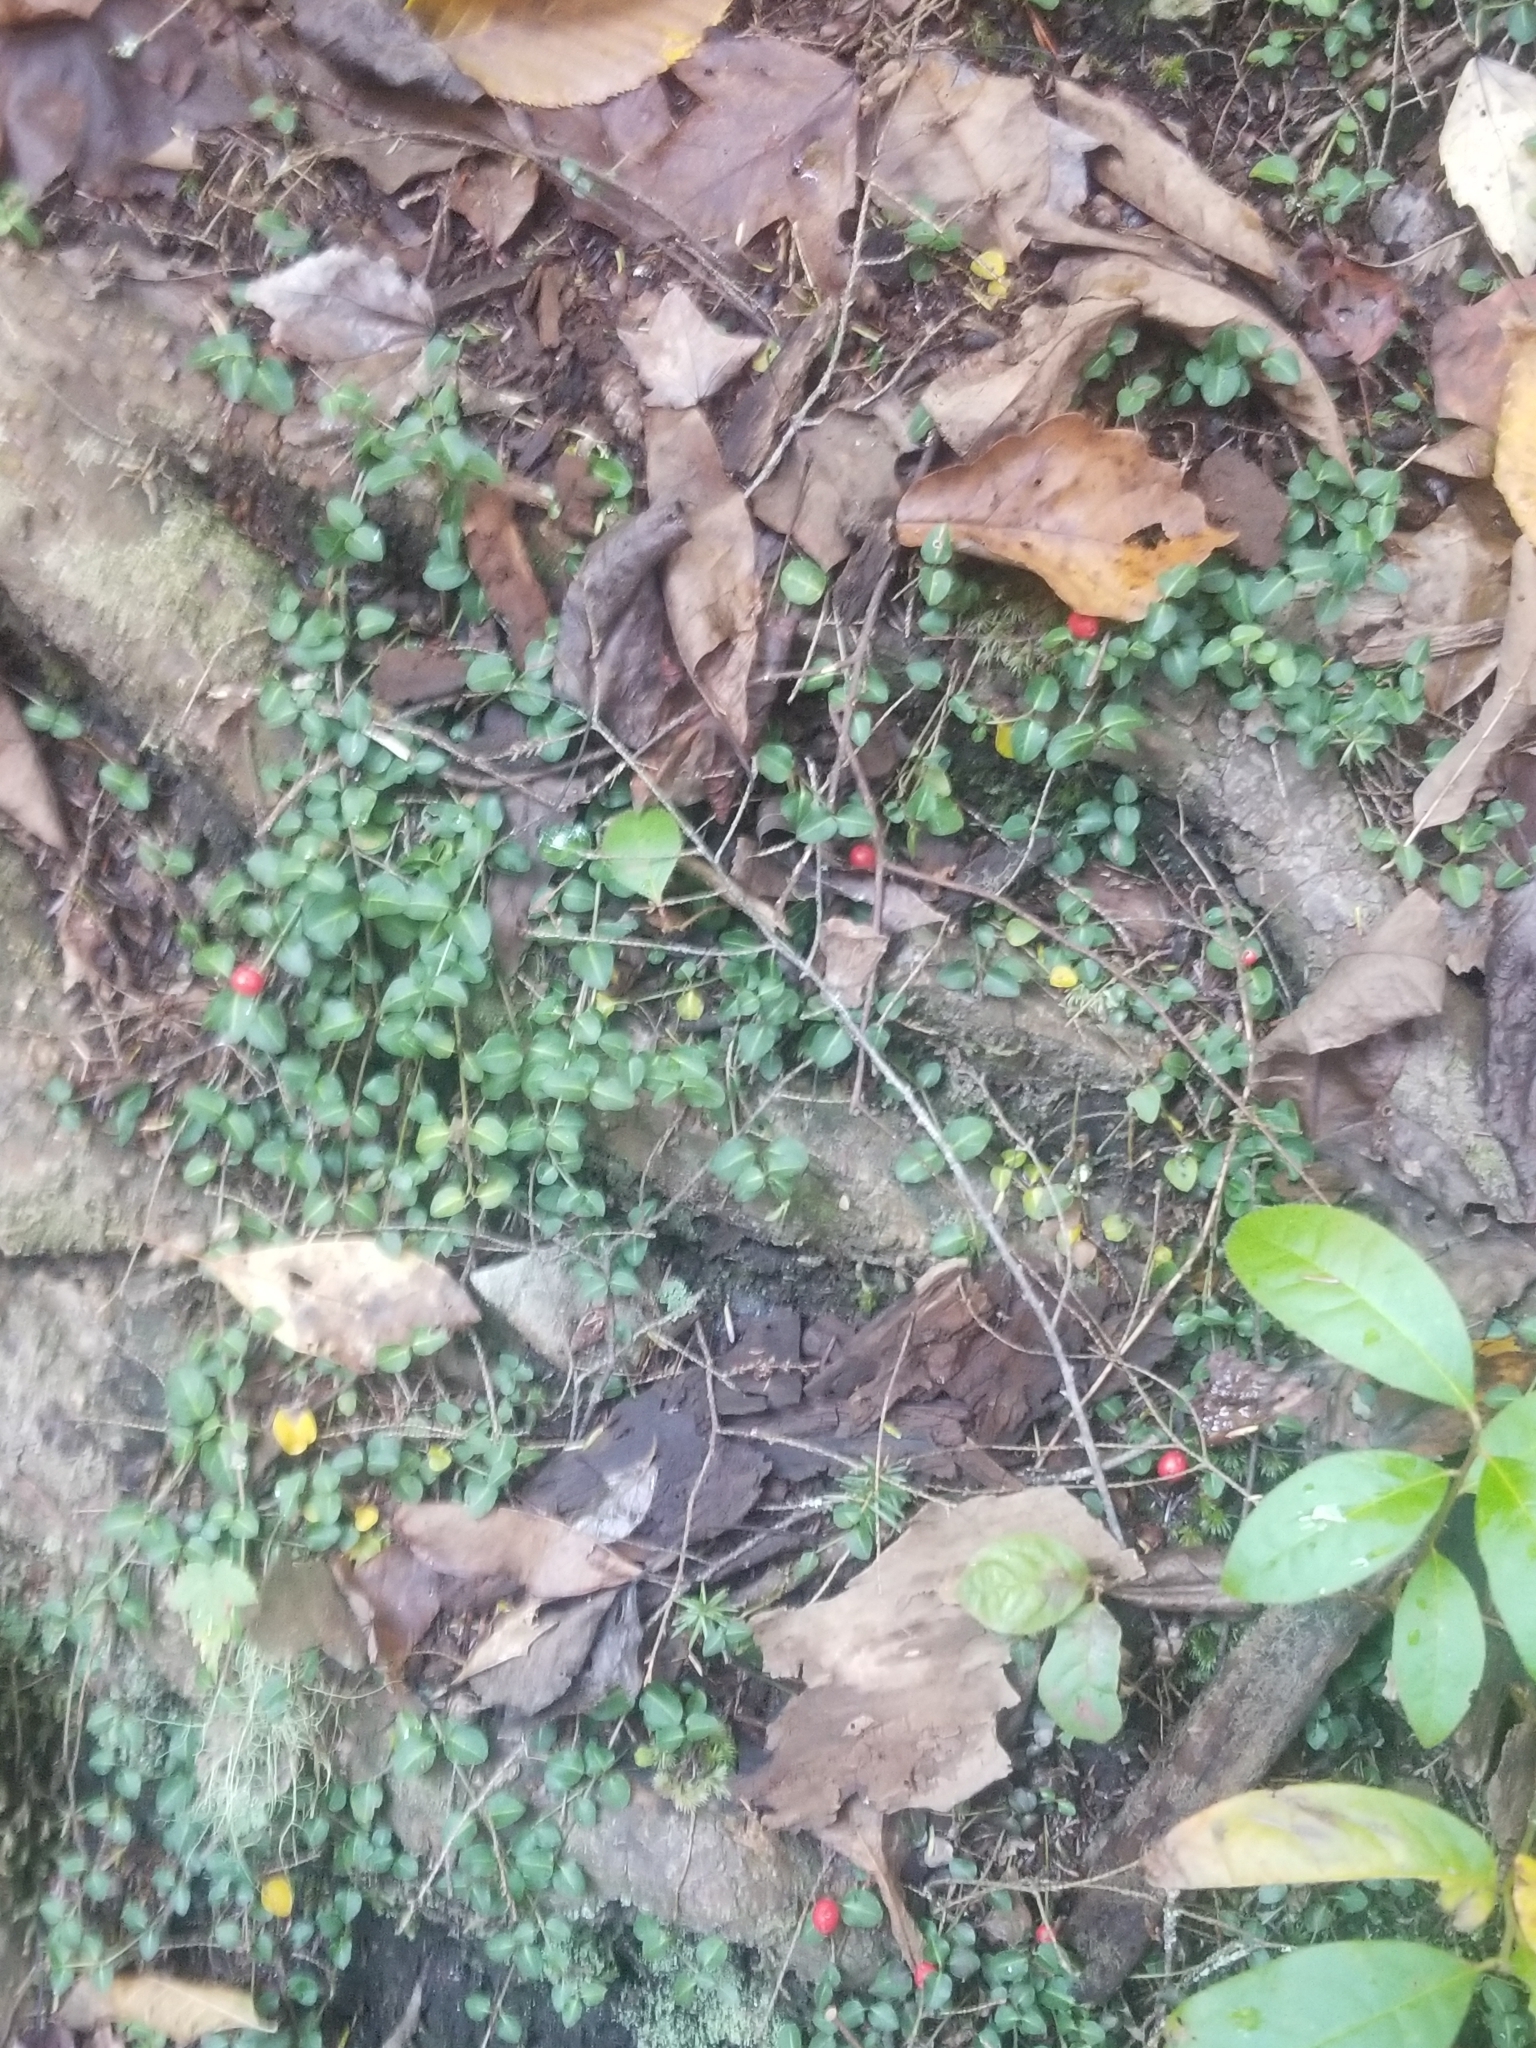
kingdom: Plantae
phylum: Tracheophyta
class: Magnoliopsida
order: Gentianales
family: Rubiaceae
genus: Mitchella
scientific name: Mitchella repens
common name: Partridge-berry
